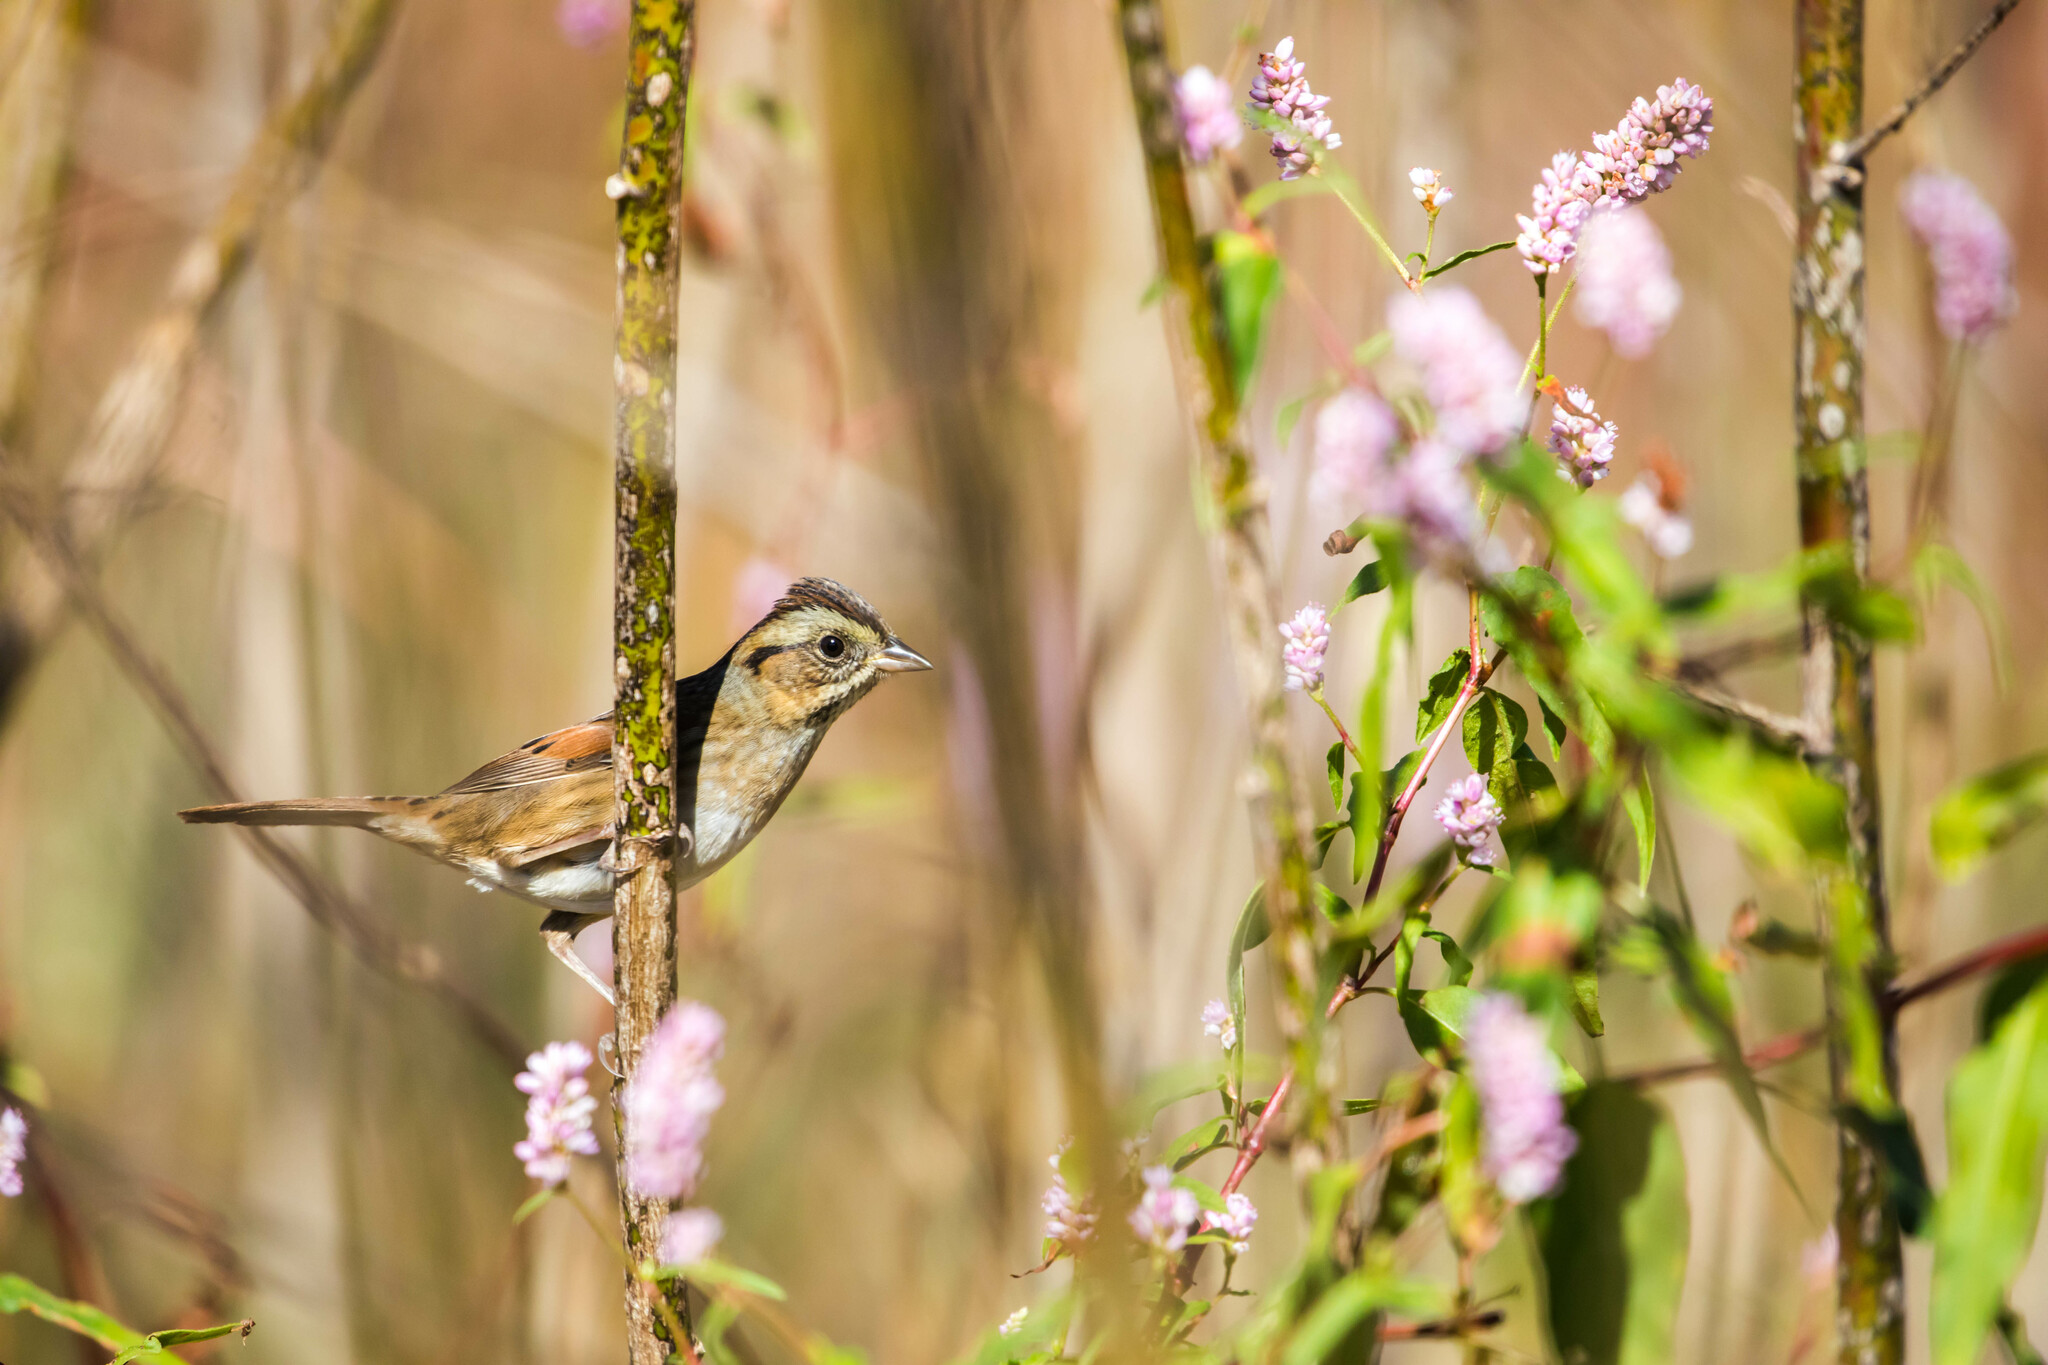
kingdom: Animalia
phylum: Chordata
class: Aves
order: Passeriformes
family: Passerellidae
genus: Melospiza
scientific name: Melospiza georgiana
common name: Swamp sparrow
